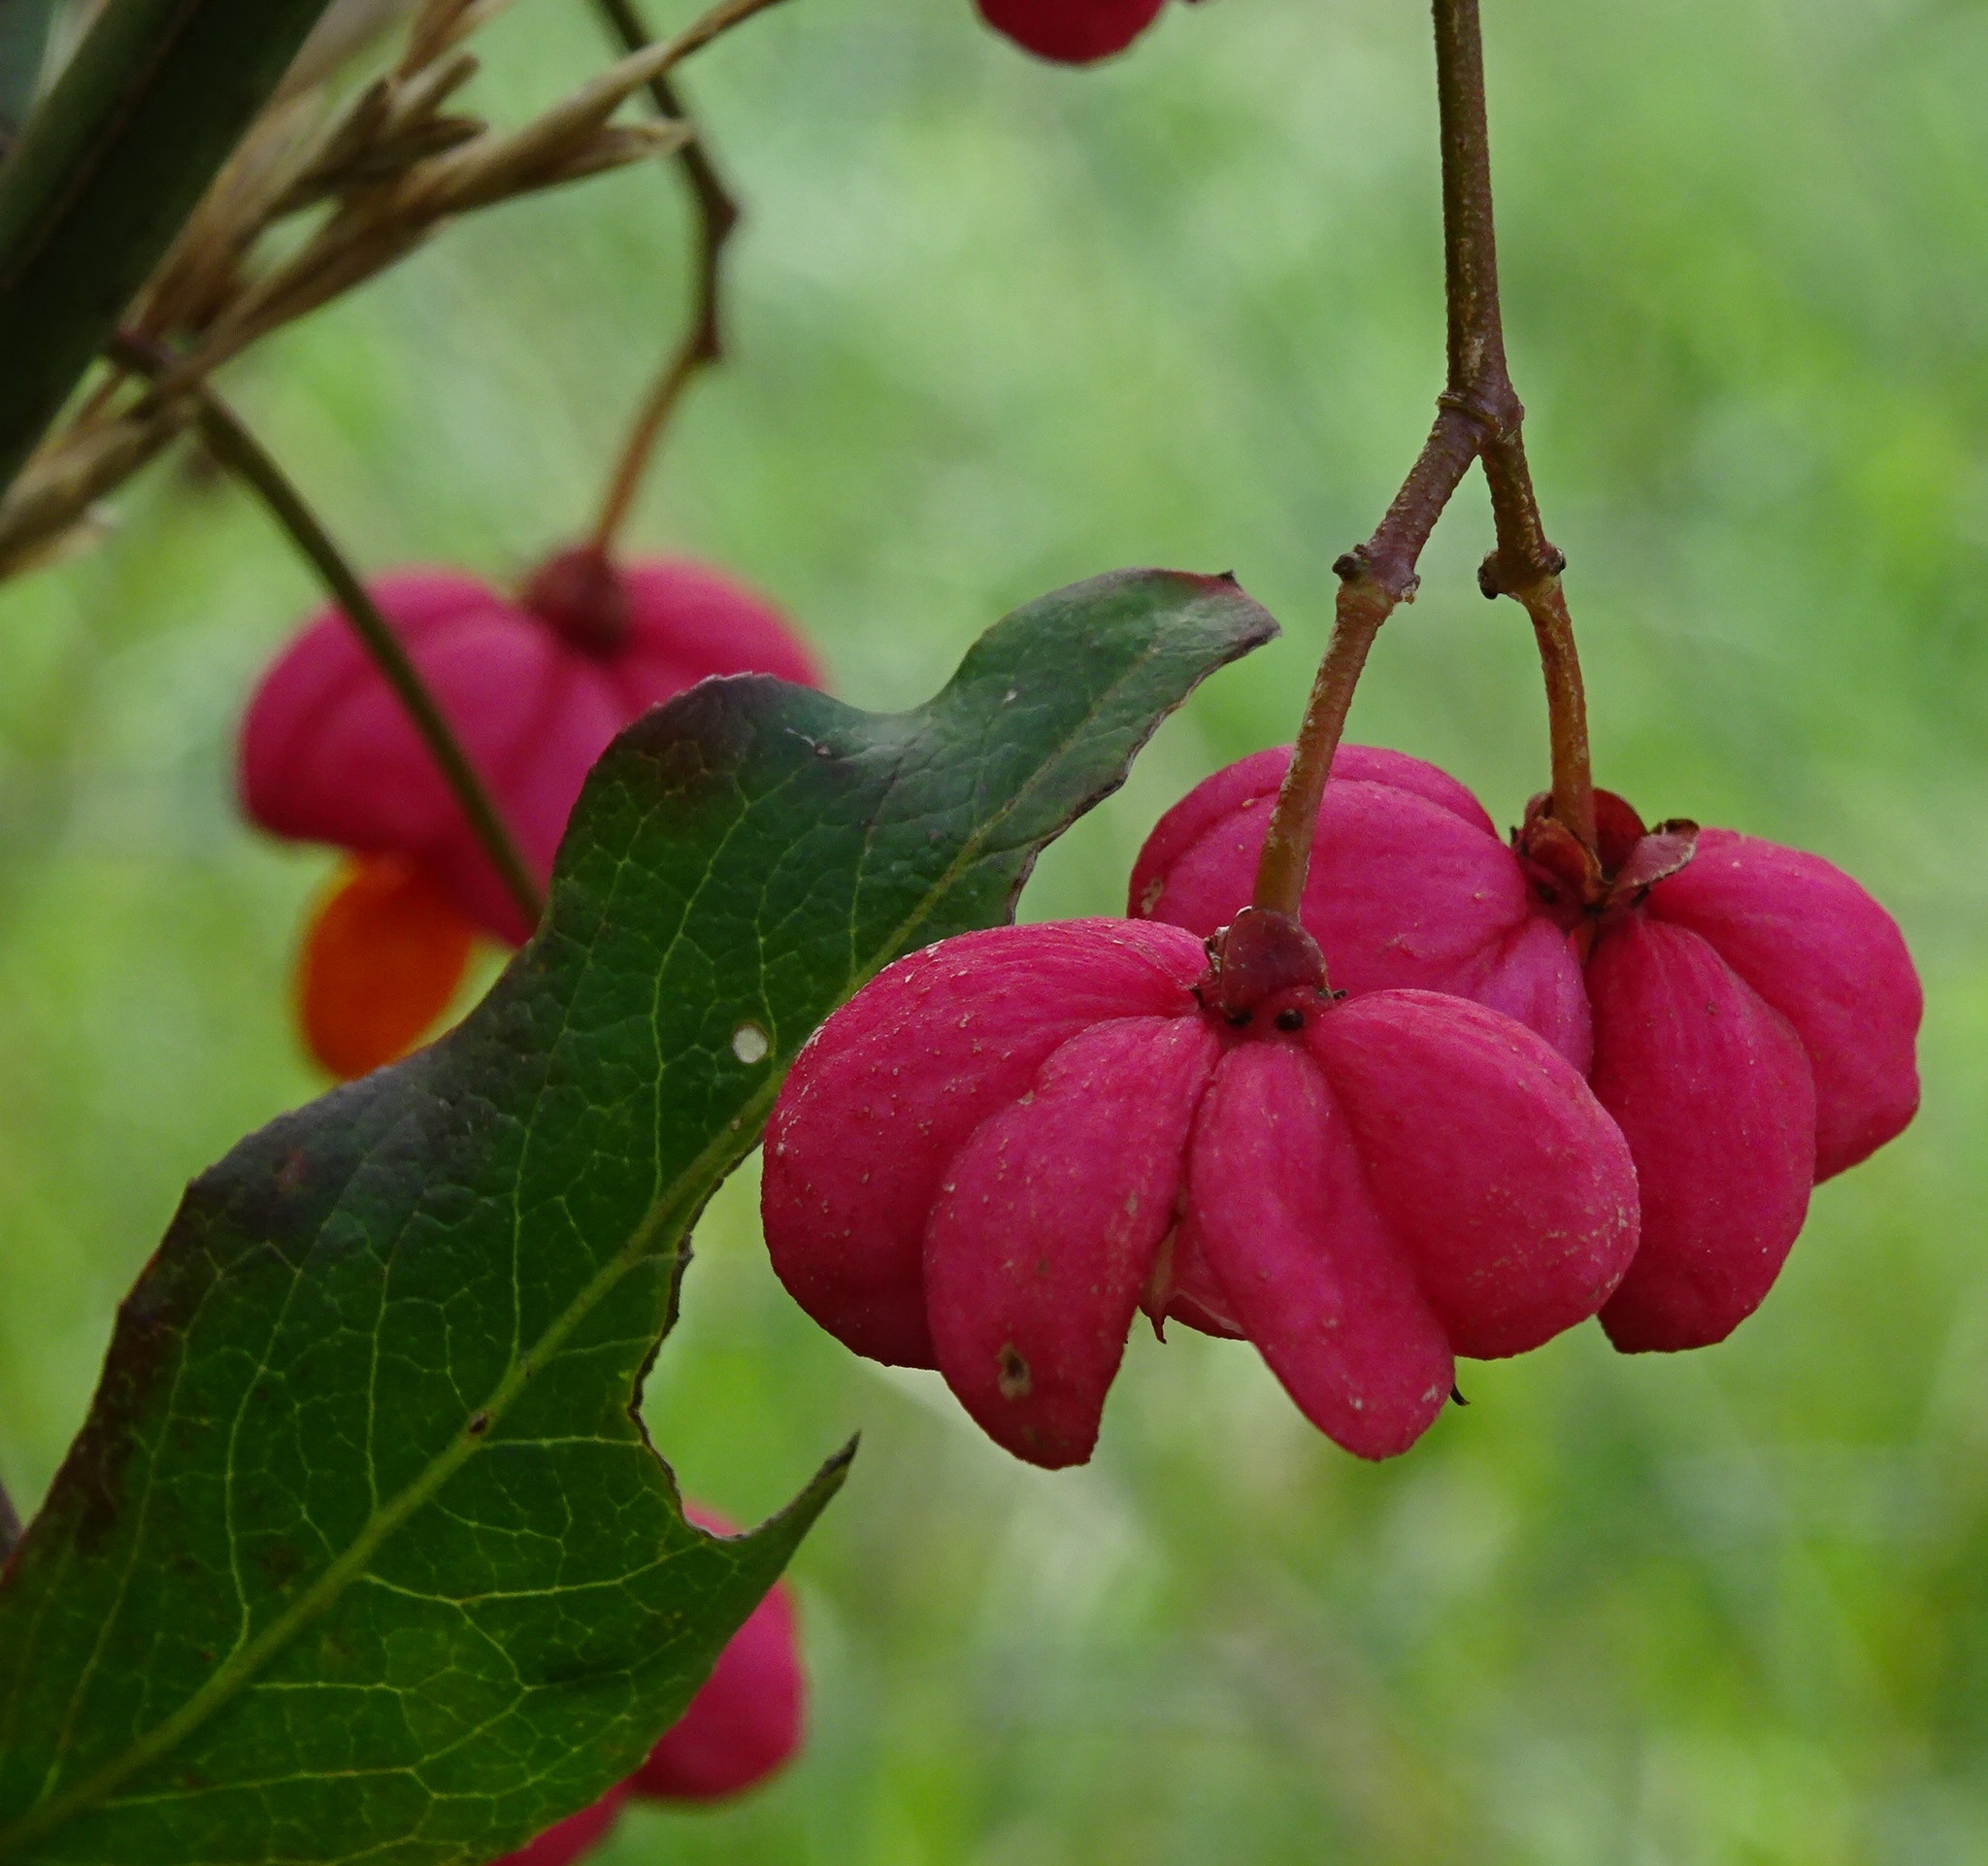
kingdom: Plantae
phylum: Tracheophyta
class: Magnoliopsida
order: Celastrales
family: Celastraceae
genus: Euonymus
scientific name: Euonymus europaeus
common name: Spindle
